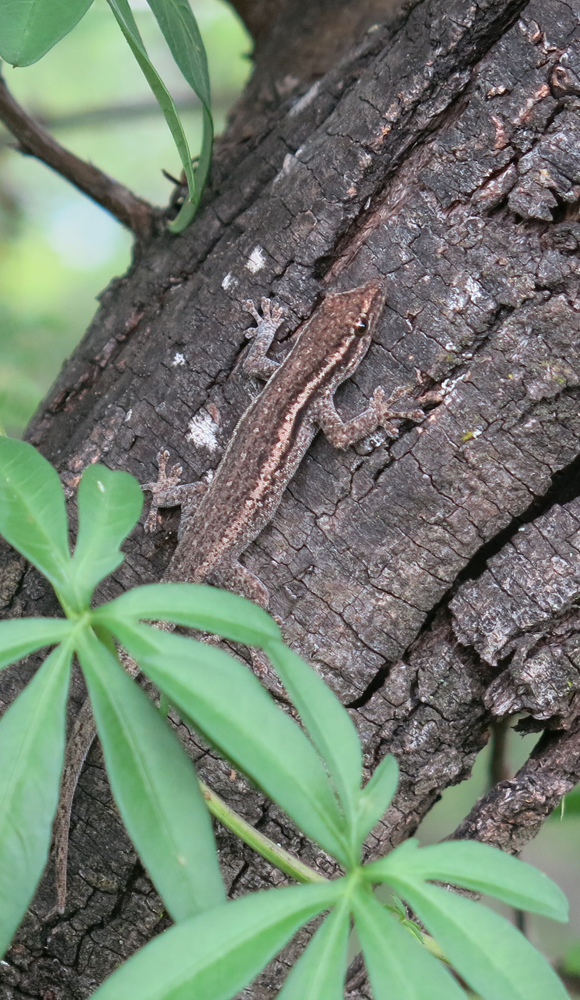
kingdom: Animalia
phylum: Chordata
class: Squamata
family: Gekkonidae
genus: Lygodactylus
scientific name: Lygodactylus capensis
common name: Cape dwarf gecko
